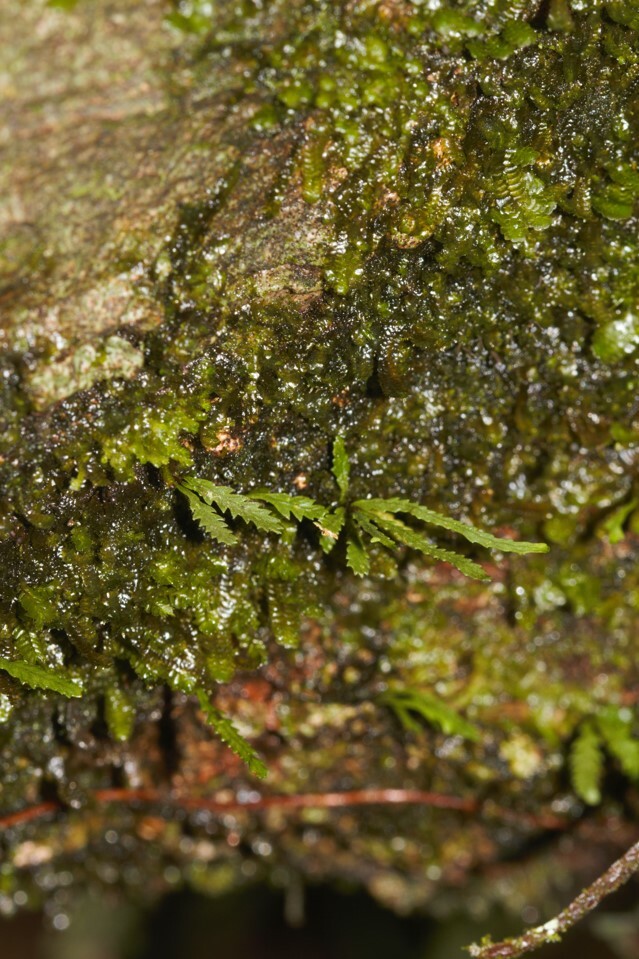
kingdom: Plantae
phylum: Tracheophyta
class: Polypodiopsida
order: Polypodiales
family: Polypodiaceae
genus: Cochlidium
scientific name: Cochlidium serrulatum
